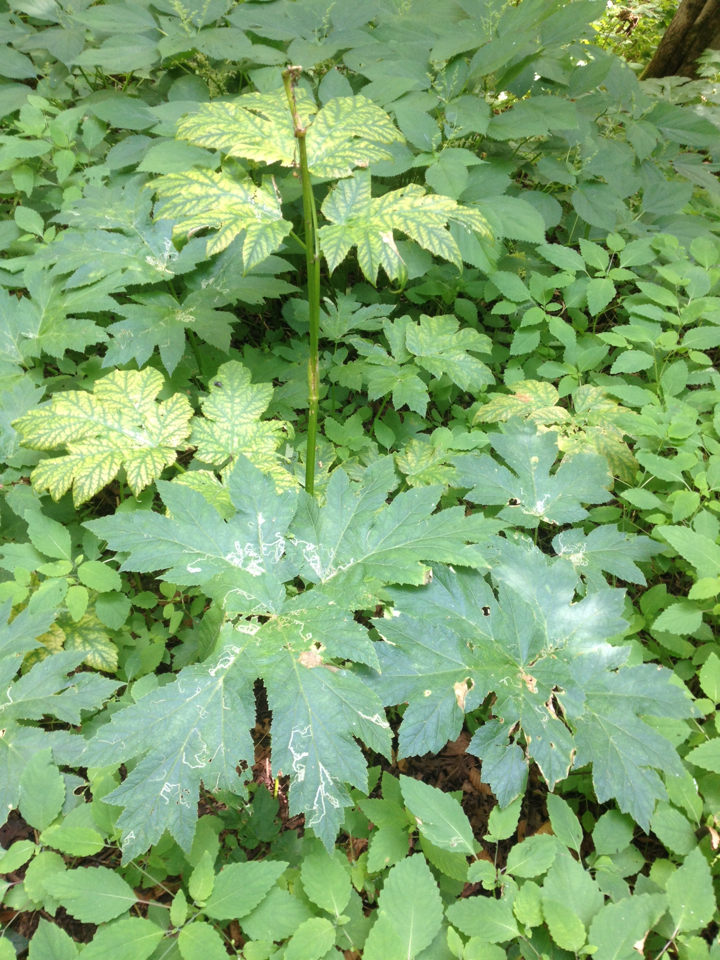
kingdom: Plantae
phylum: Tracheophyta
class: Magnoliopsida
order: Apiales
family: Apiaceae
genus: Heracleum
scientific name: Heracleum maximum
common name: American cow parsnip
